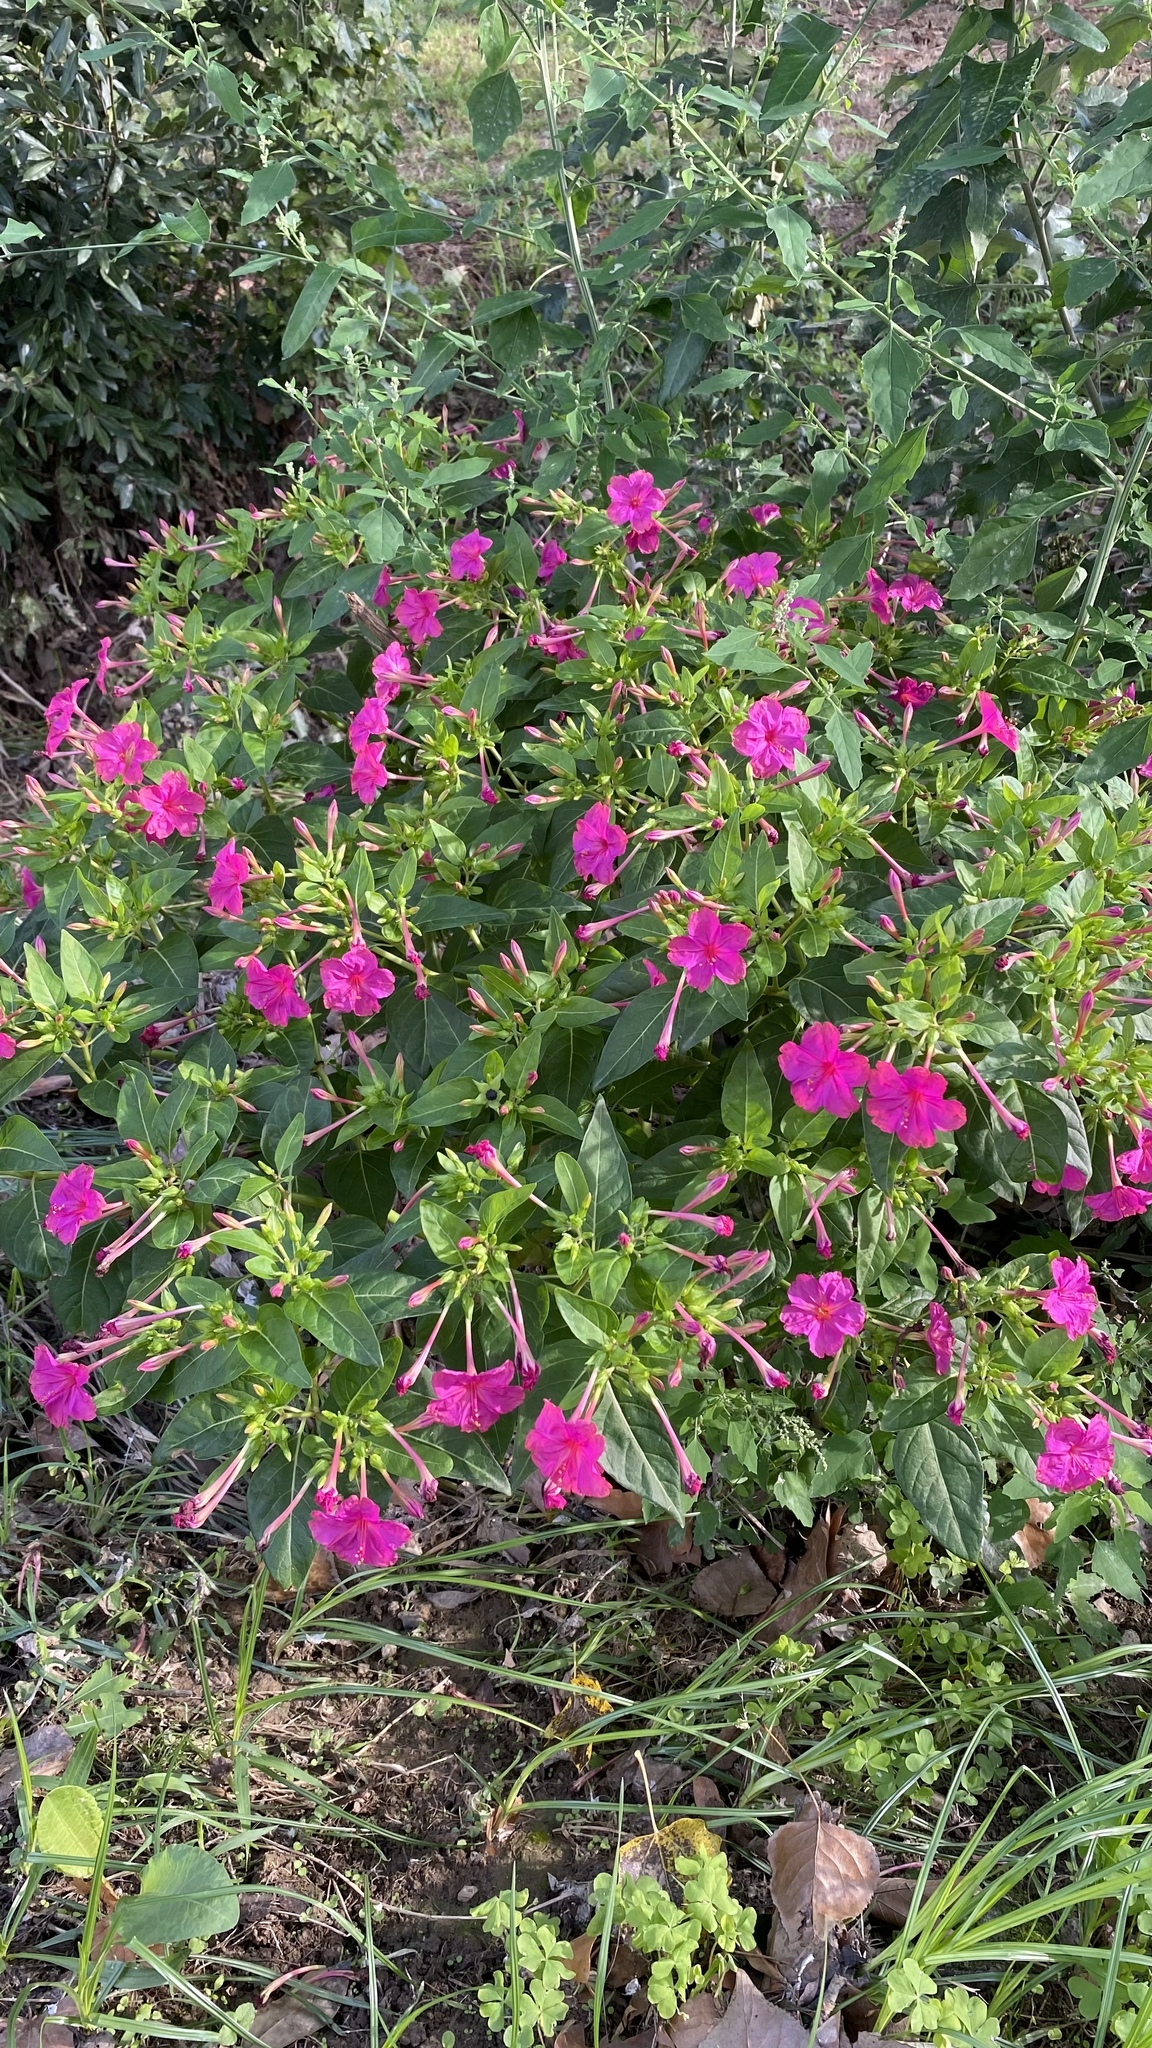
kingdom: Plantae
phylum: Tracheophyta
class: Magnoliopsida
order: Caryophyllales
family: Nyctaginaceae
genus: Mirabilis
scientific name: Mirabilis jalapa
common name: Marvel-of-peru
